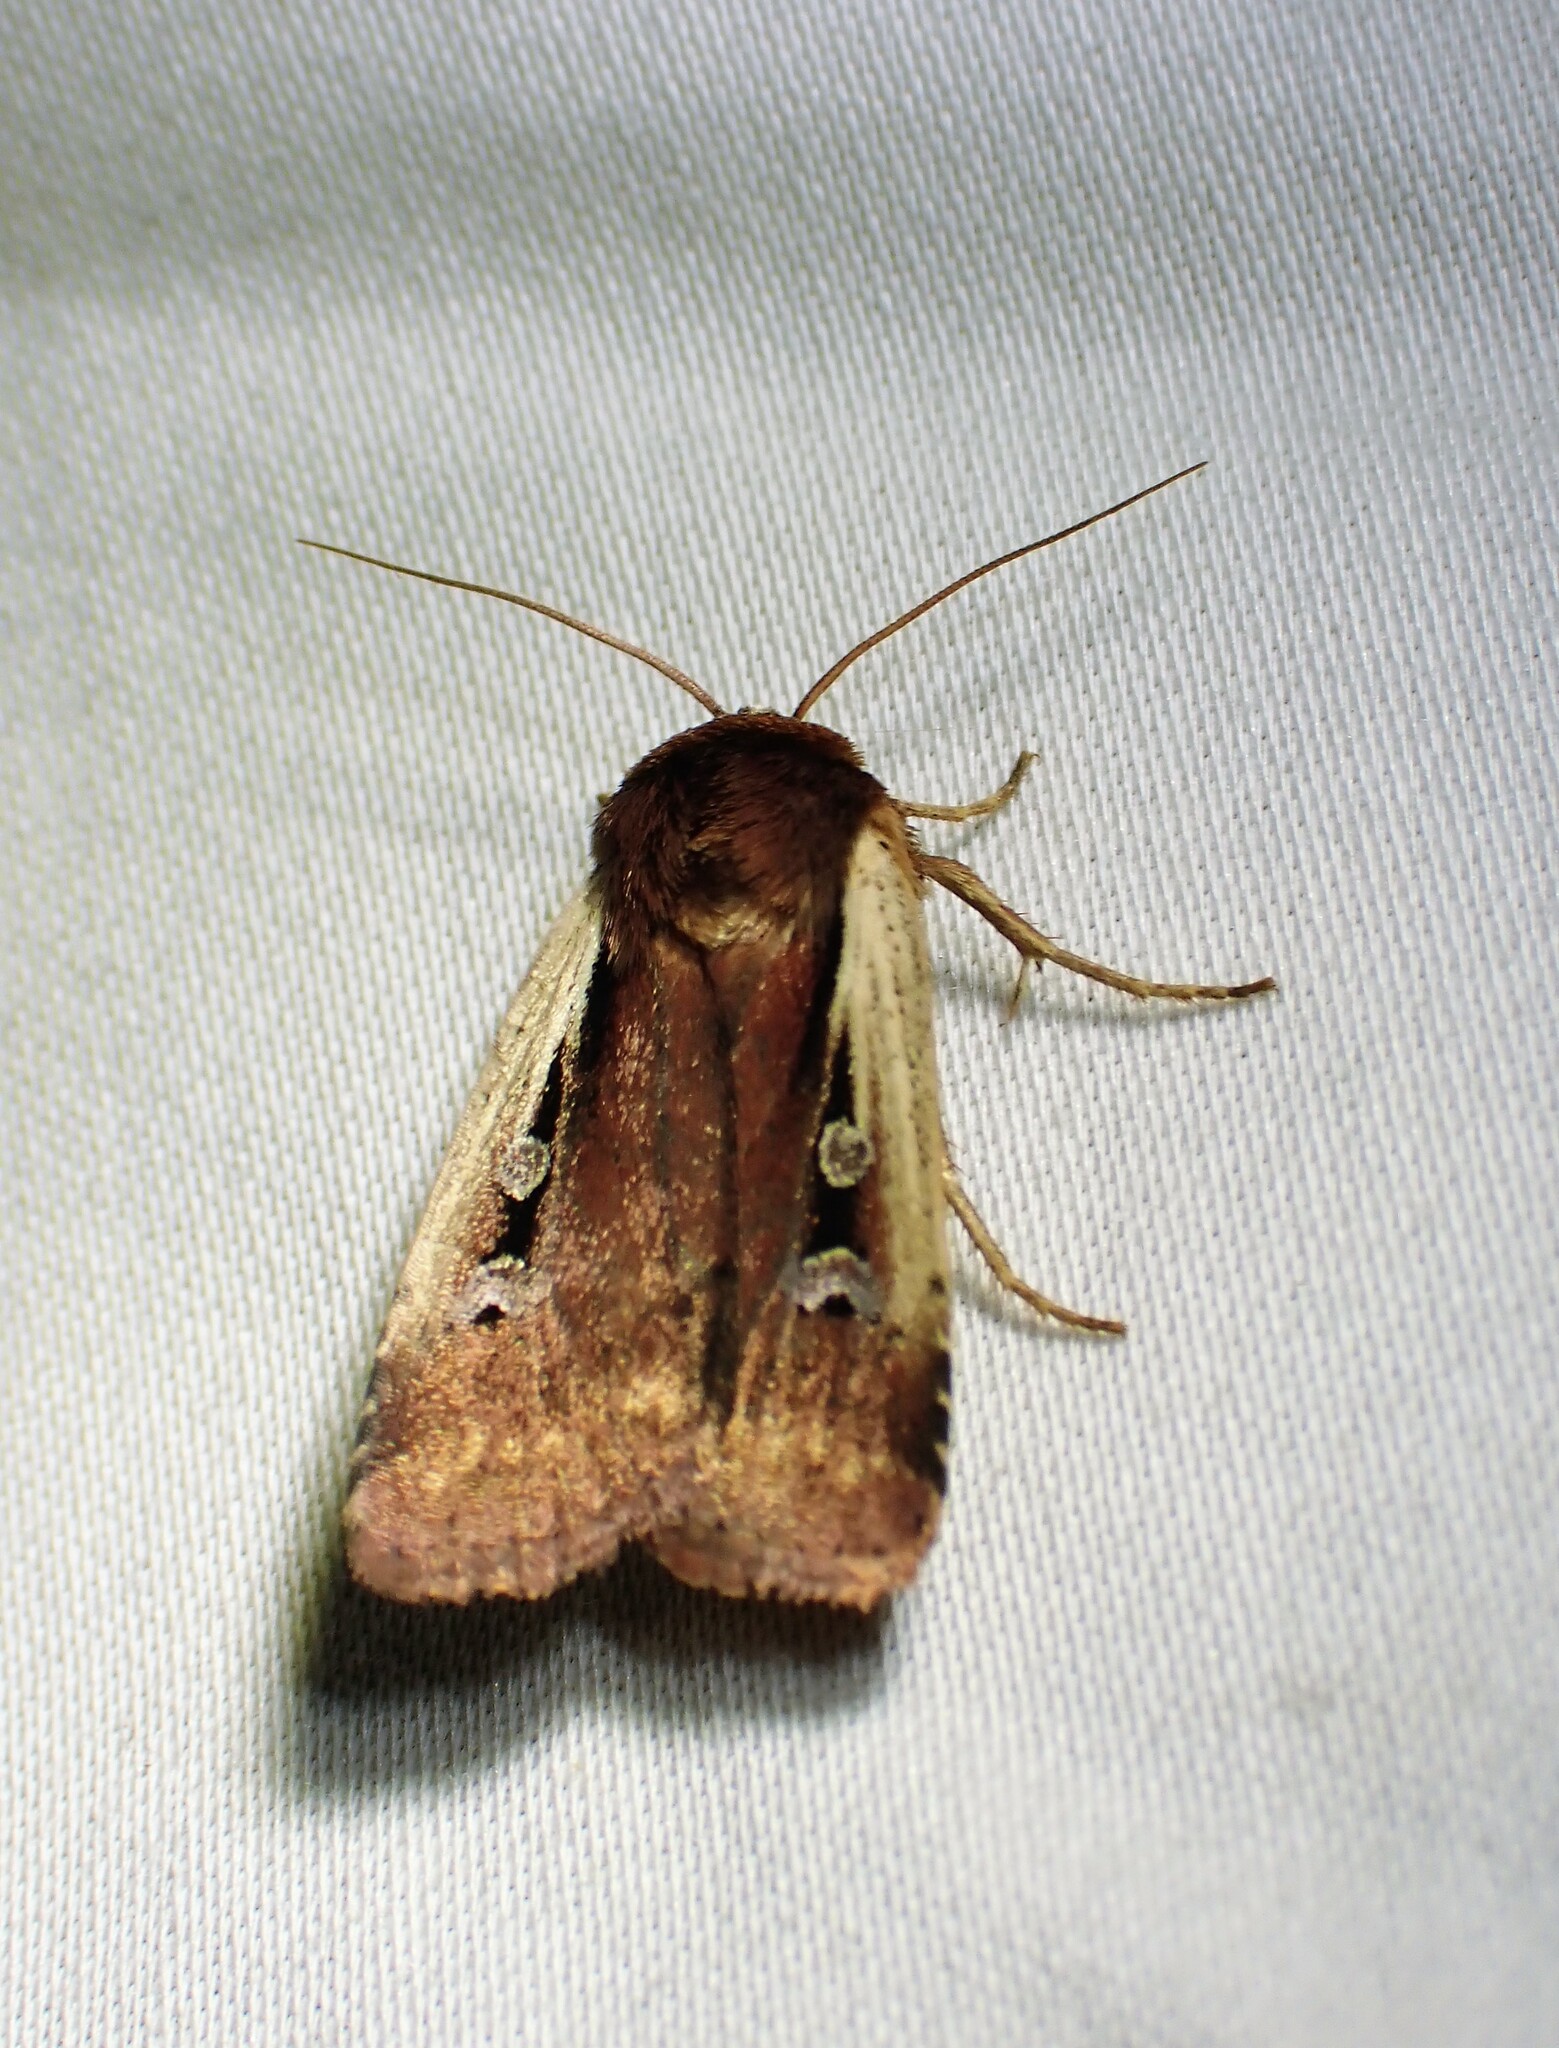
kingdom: Animalia
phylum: Arthropoda
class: Insecta
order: Lepidoptera
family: Noctuidae
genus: Ochropleura
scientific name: Ochropleura implecta
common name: Flame-shouldered dart
